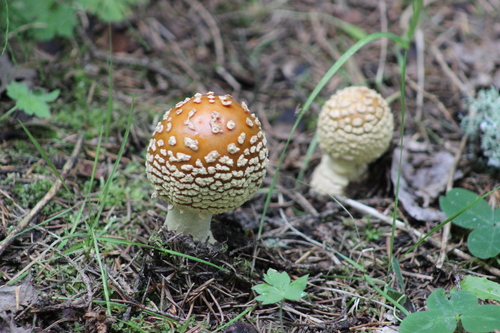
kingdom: Fungi
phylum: Basidiomycota
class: Agaricomycetes
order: Agaricales
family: Amanitaceae
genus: Amanita
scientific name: Amanita regalis
